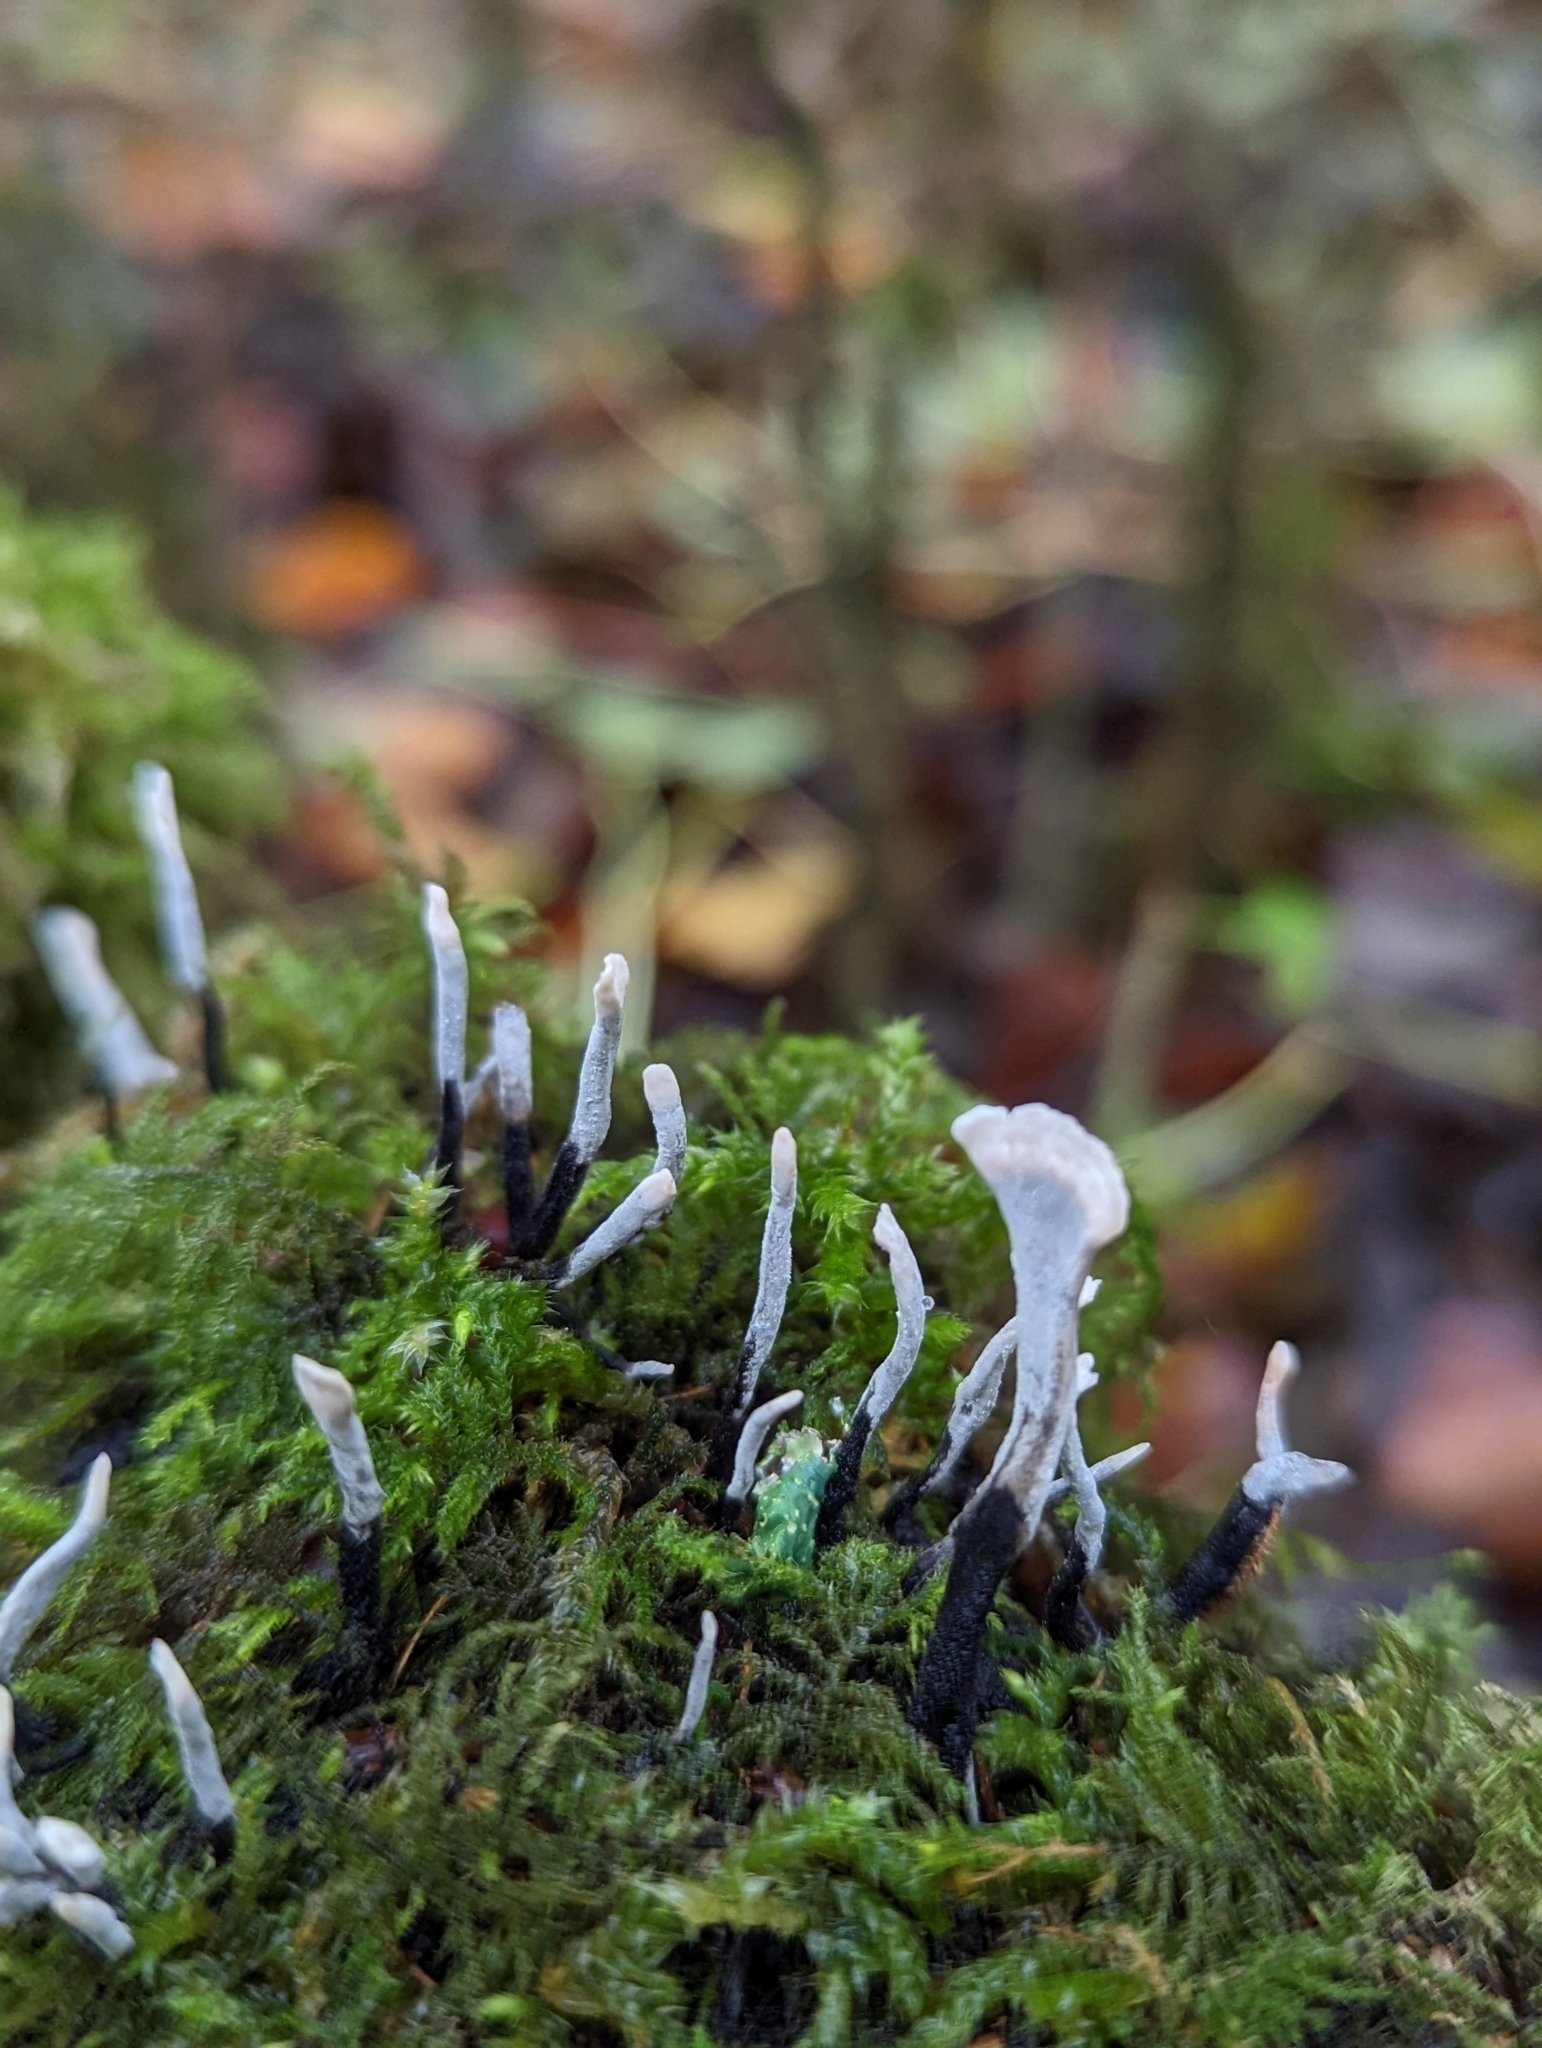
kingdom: Fungi
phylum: Ascomycota
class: Sordariomycetes
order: Xylariales
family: Xylariaceae
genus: Xylaria
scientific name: Xylaria hypoxylon
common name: Candle-snuff fungus
